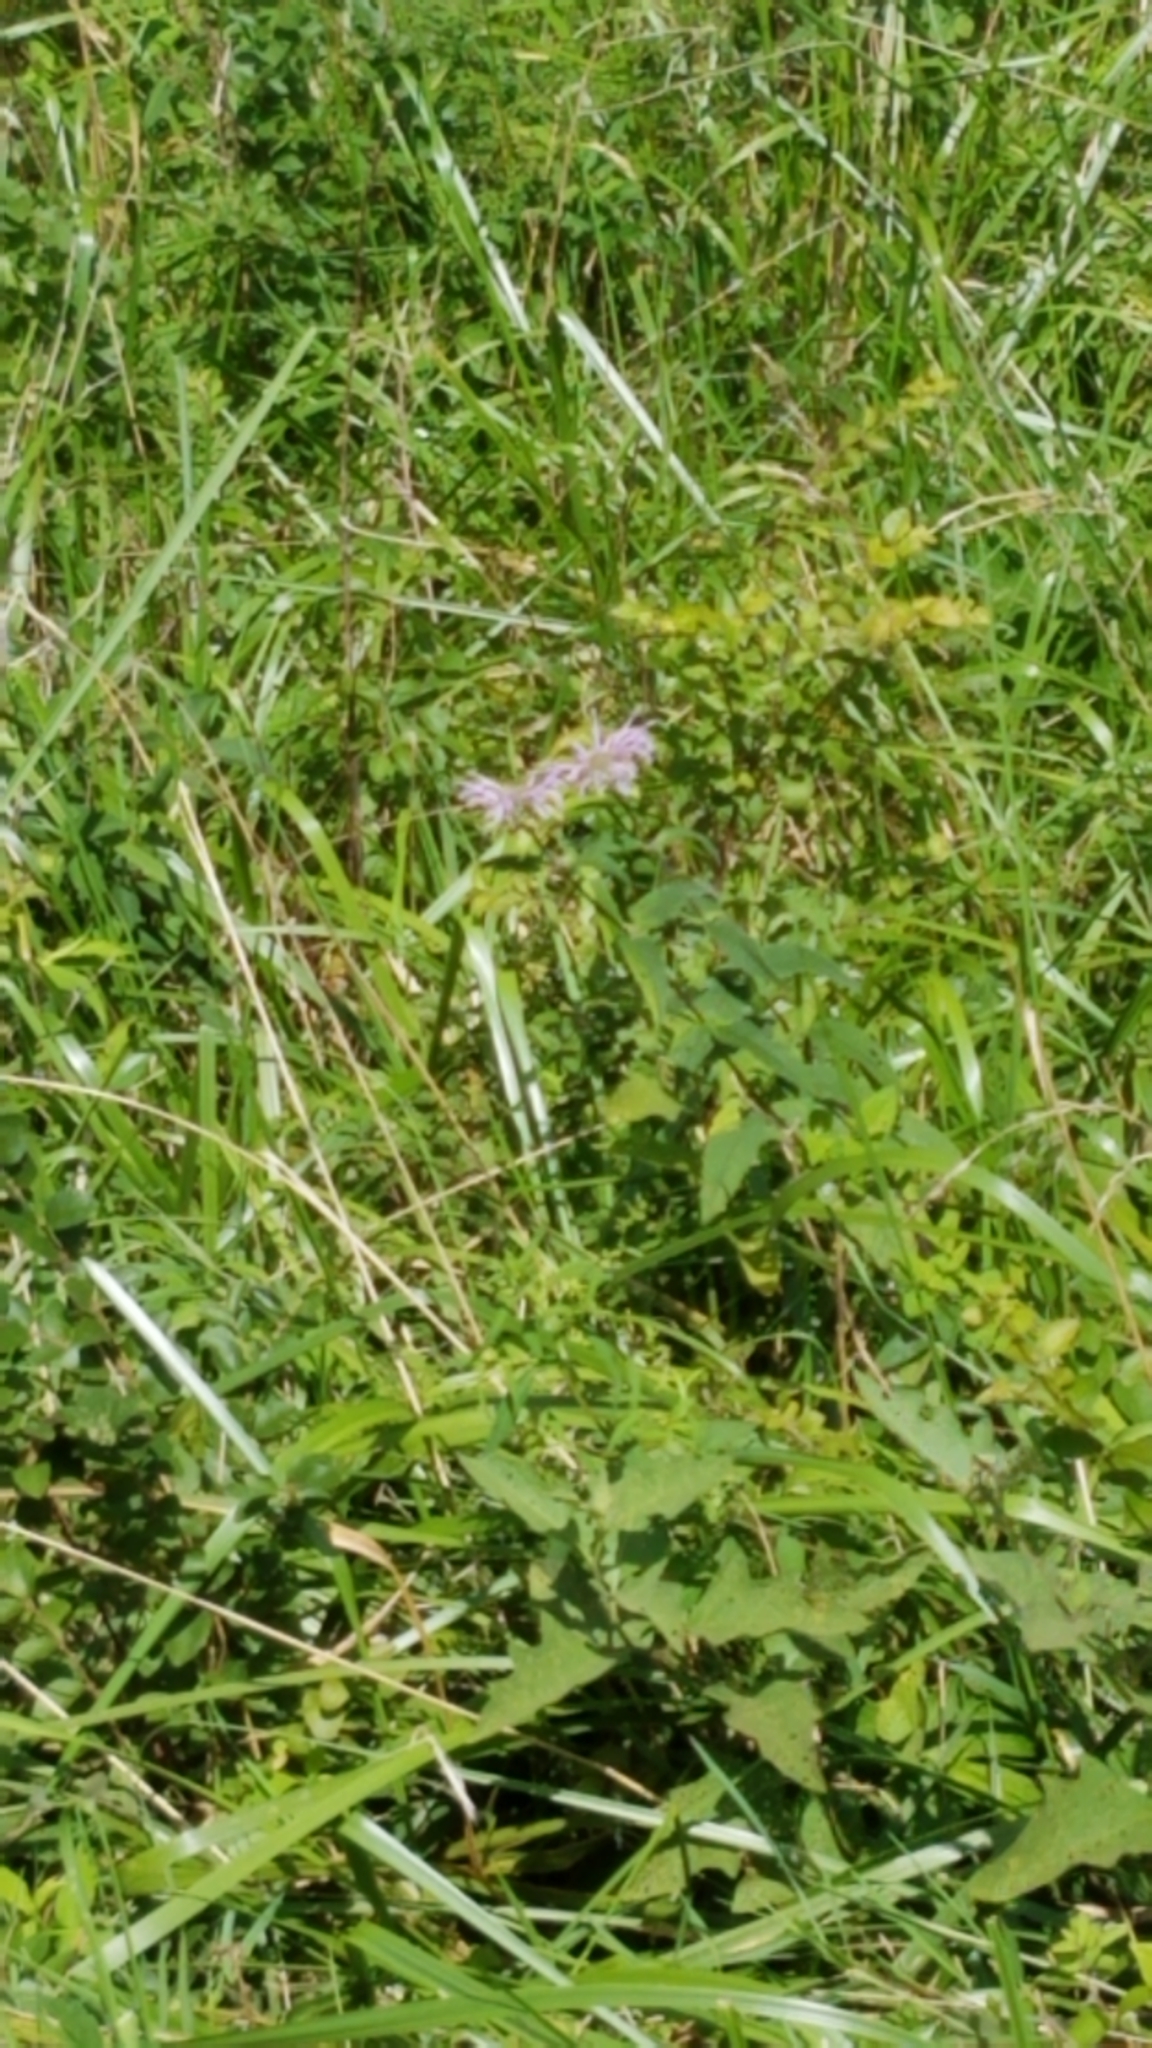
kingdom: Plantae
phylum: Tracheophyta
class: Magnoliopsida
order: Lamiales
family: Lamiaceae
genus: Monarda
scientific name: Monarda fistulosa
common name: Purple beebalm
